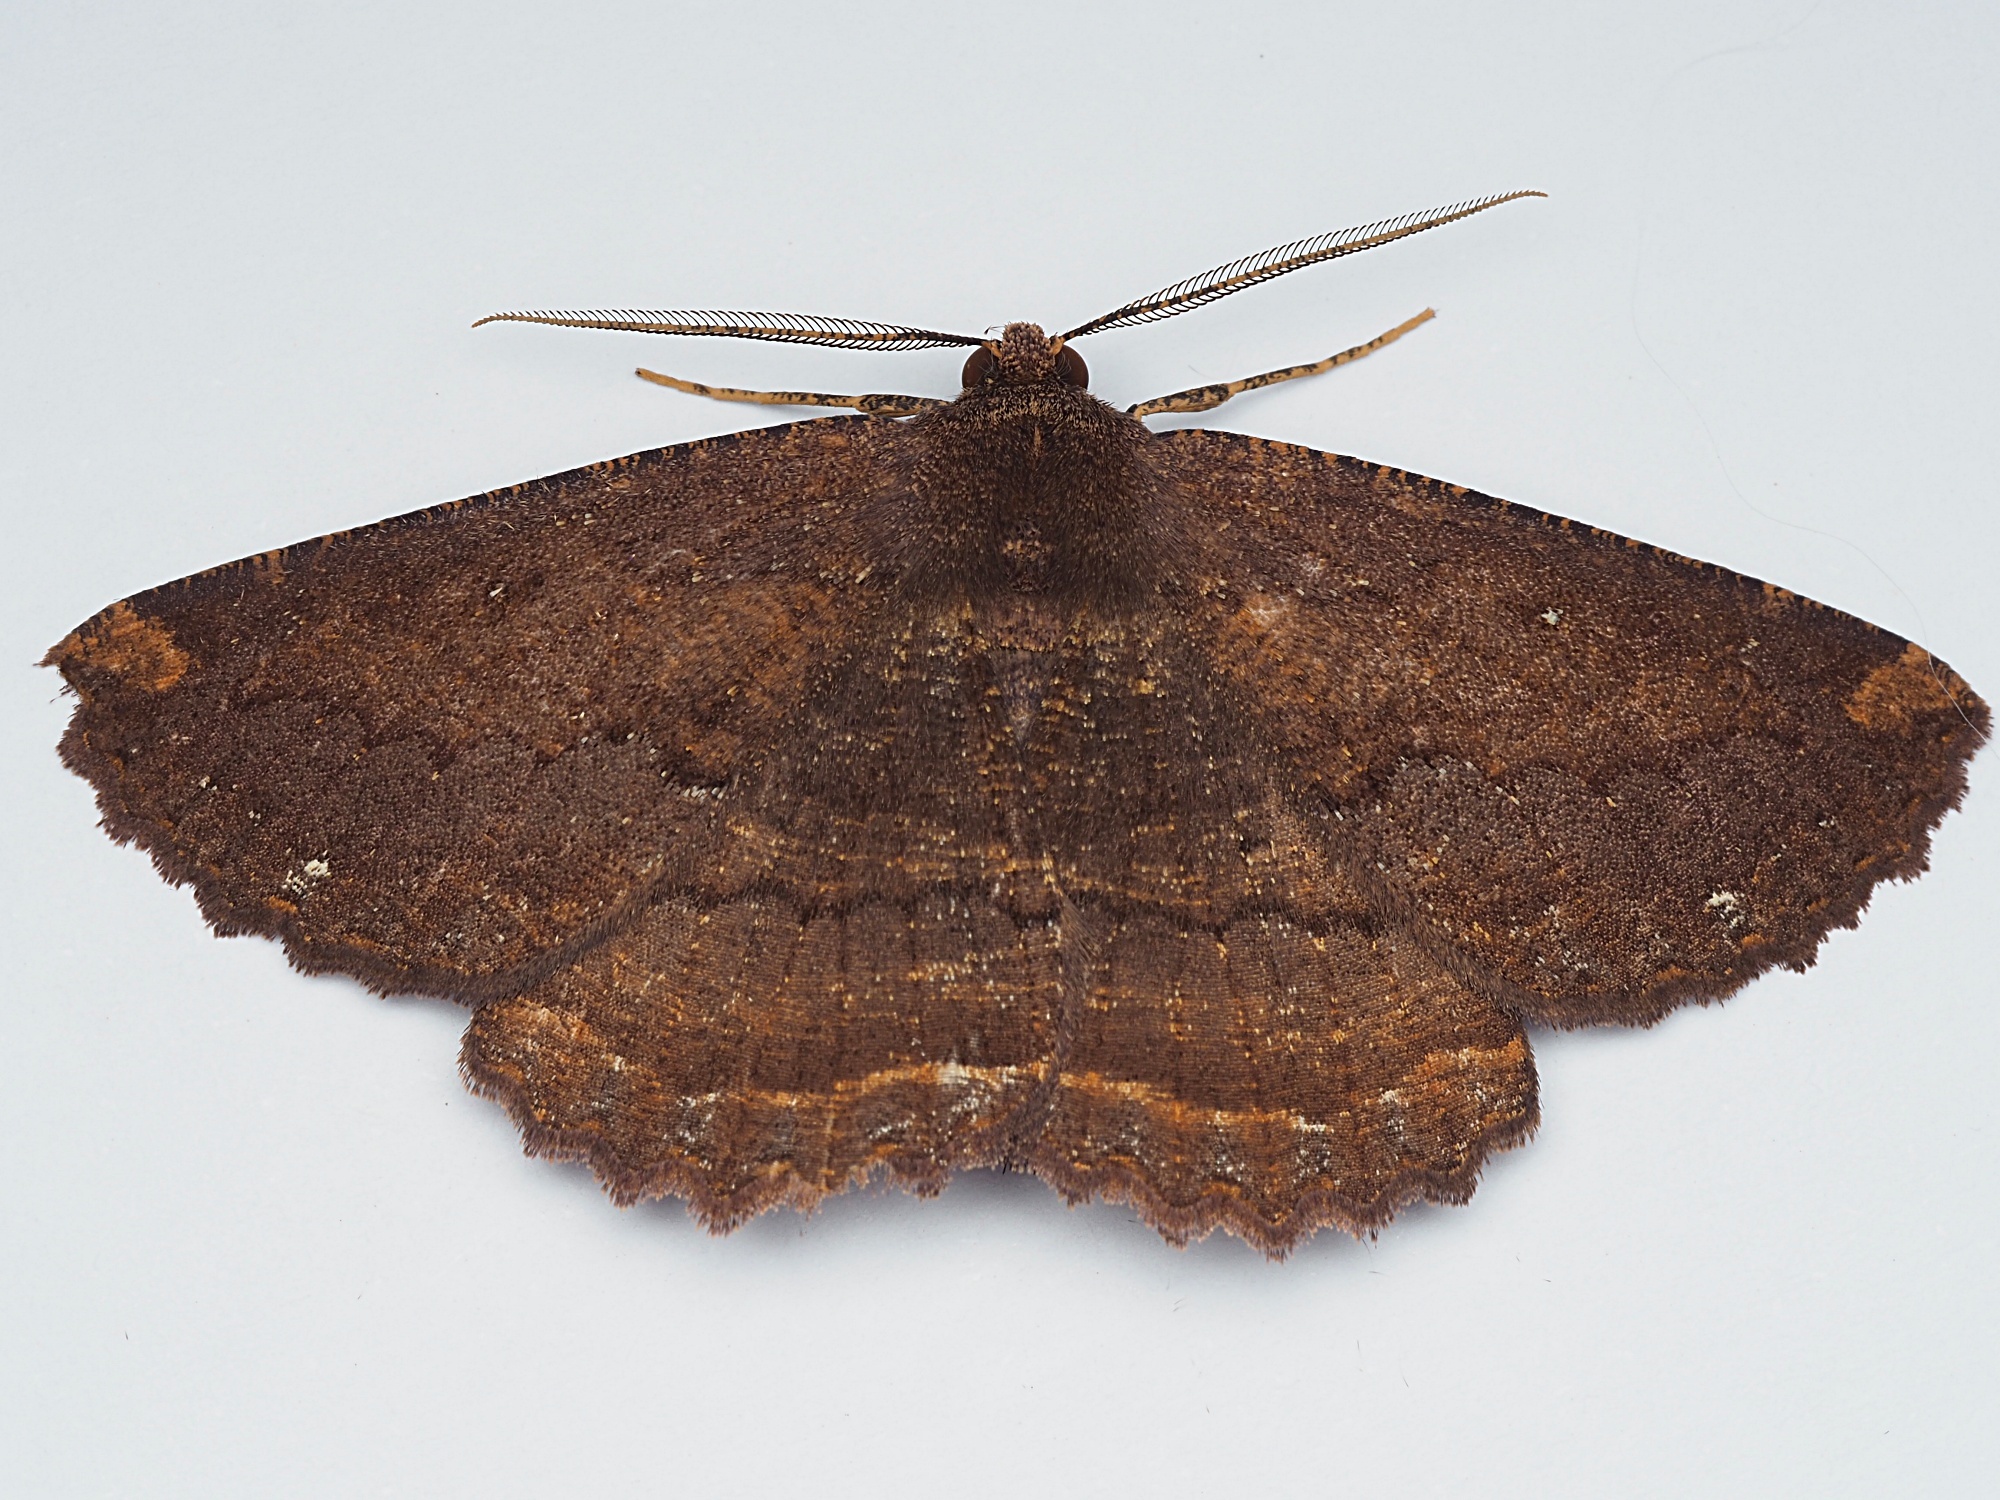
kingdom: Animalia
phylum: Arthropoda
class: Insecta
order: Lepidoptera
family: Geometridae
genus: Gellonia
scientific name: Gellonia dejectaria
